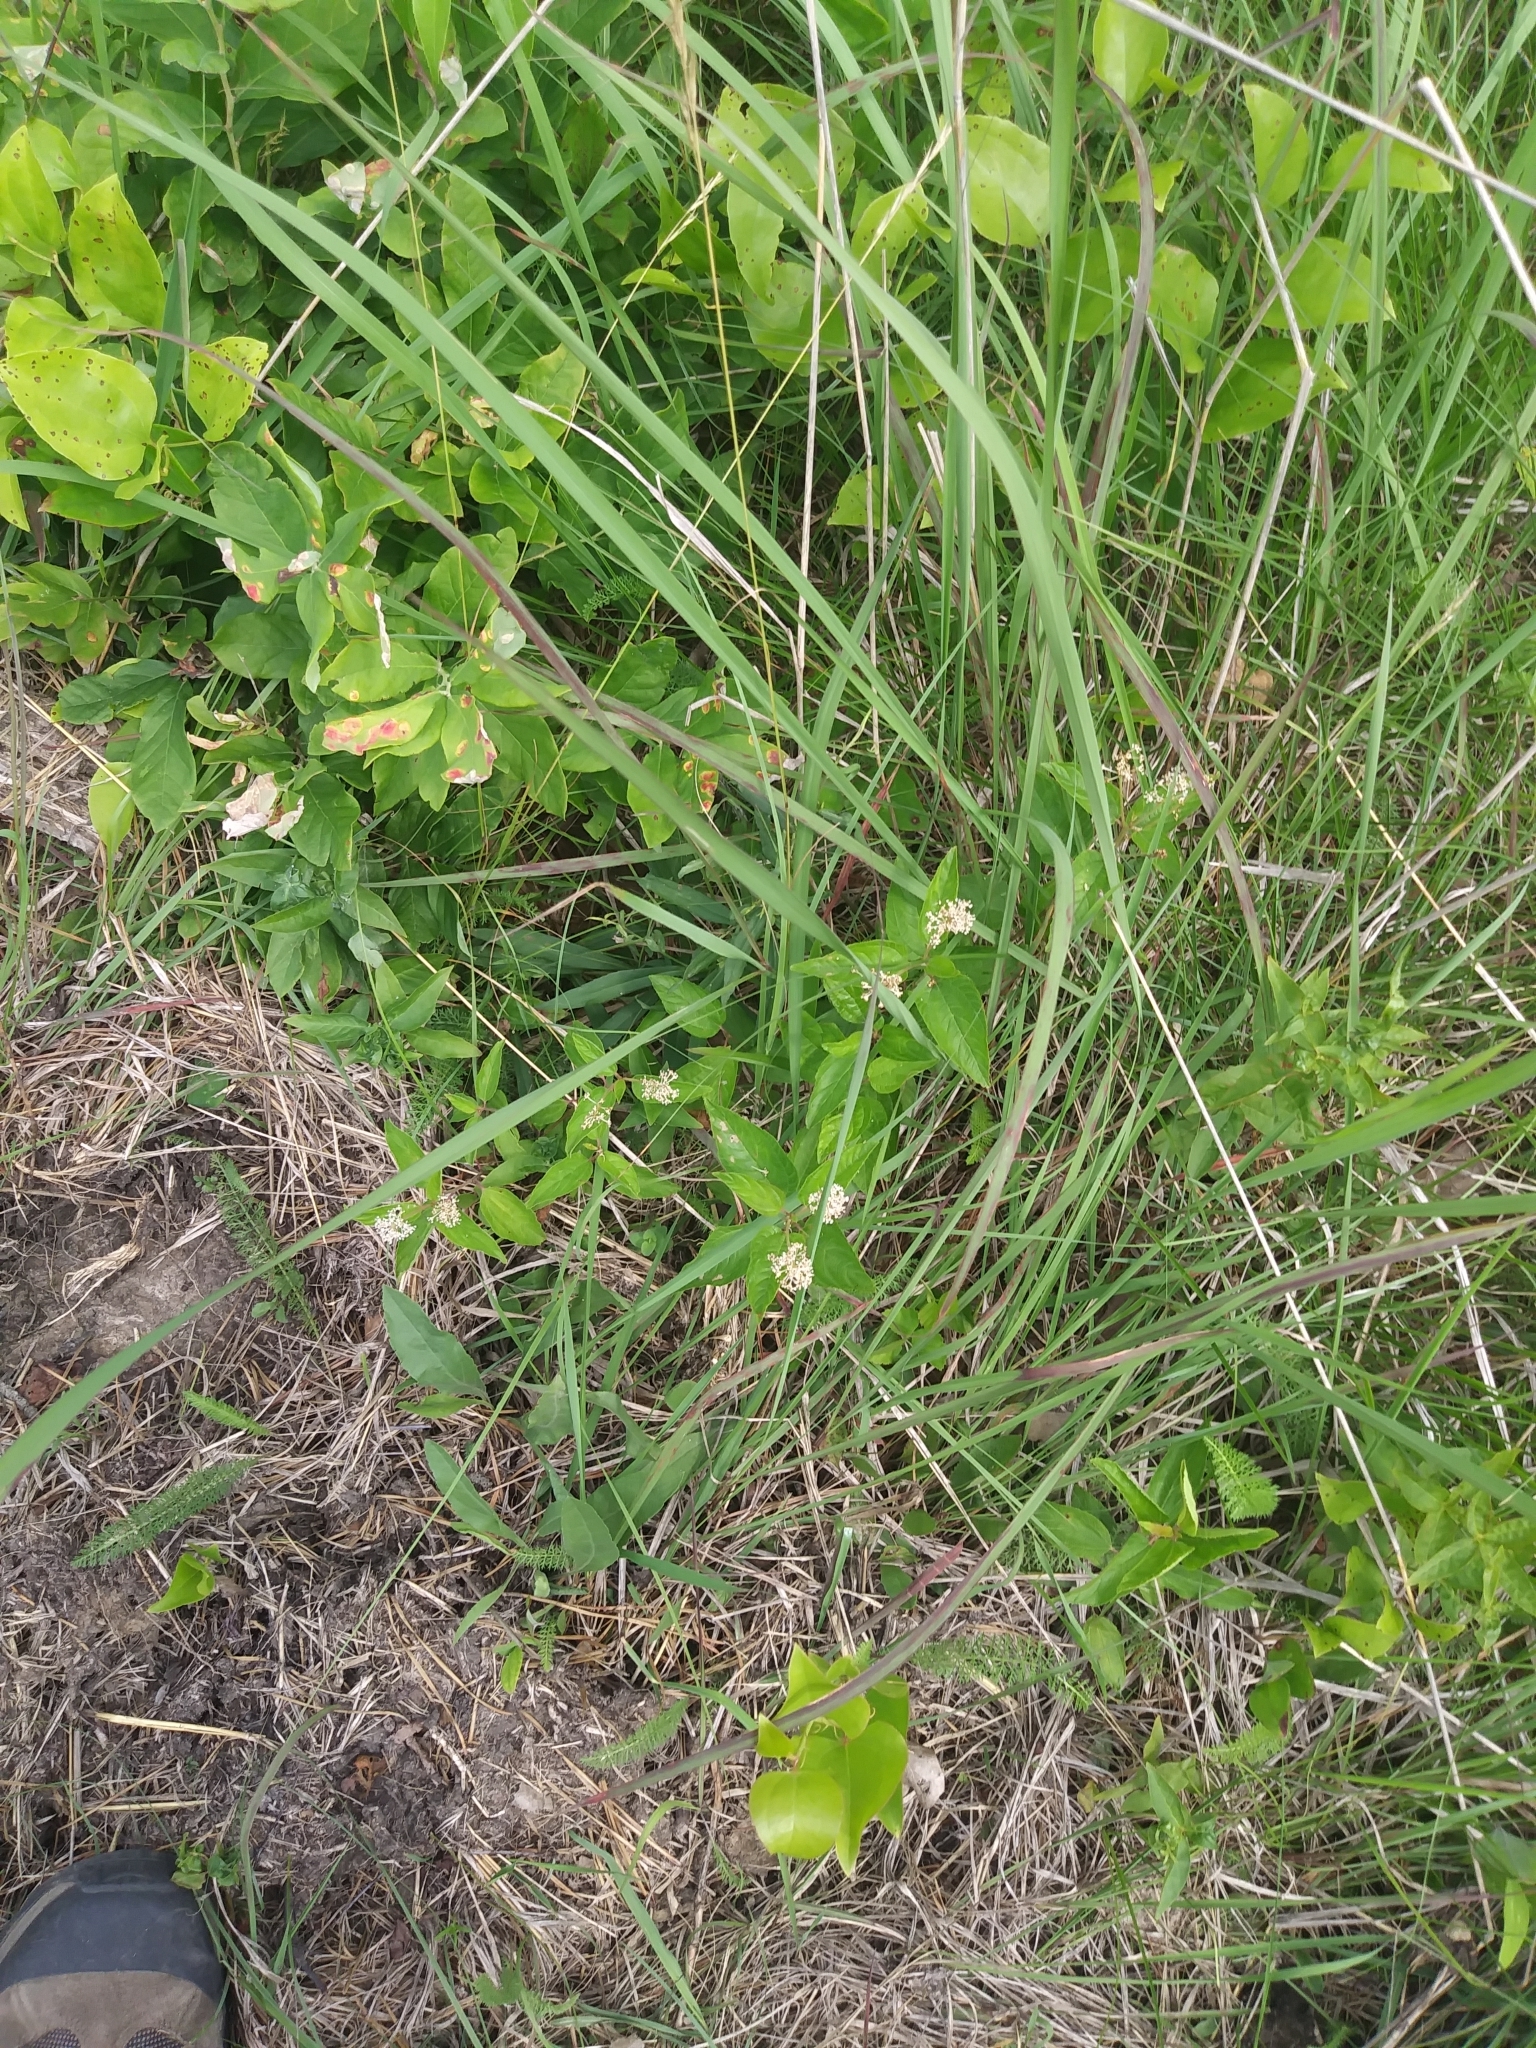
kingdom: Plantae
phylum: Tracheophyta
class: Magnoliopsida
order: Rosales
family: Rhamnaceae
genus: Ceanothus
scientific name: Ceanothus americanus
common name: Redroot
